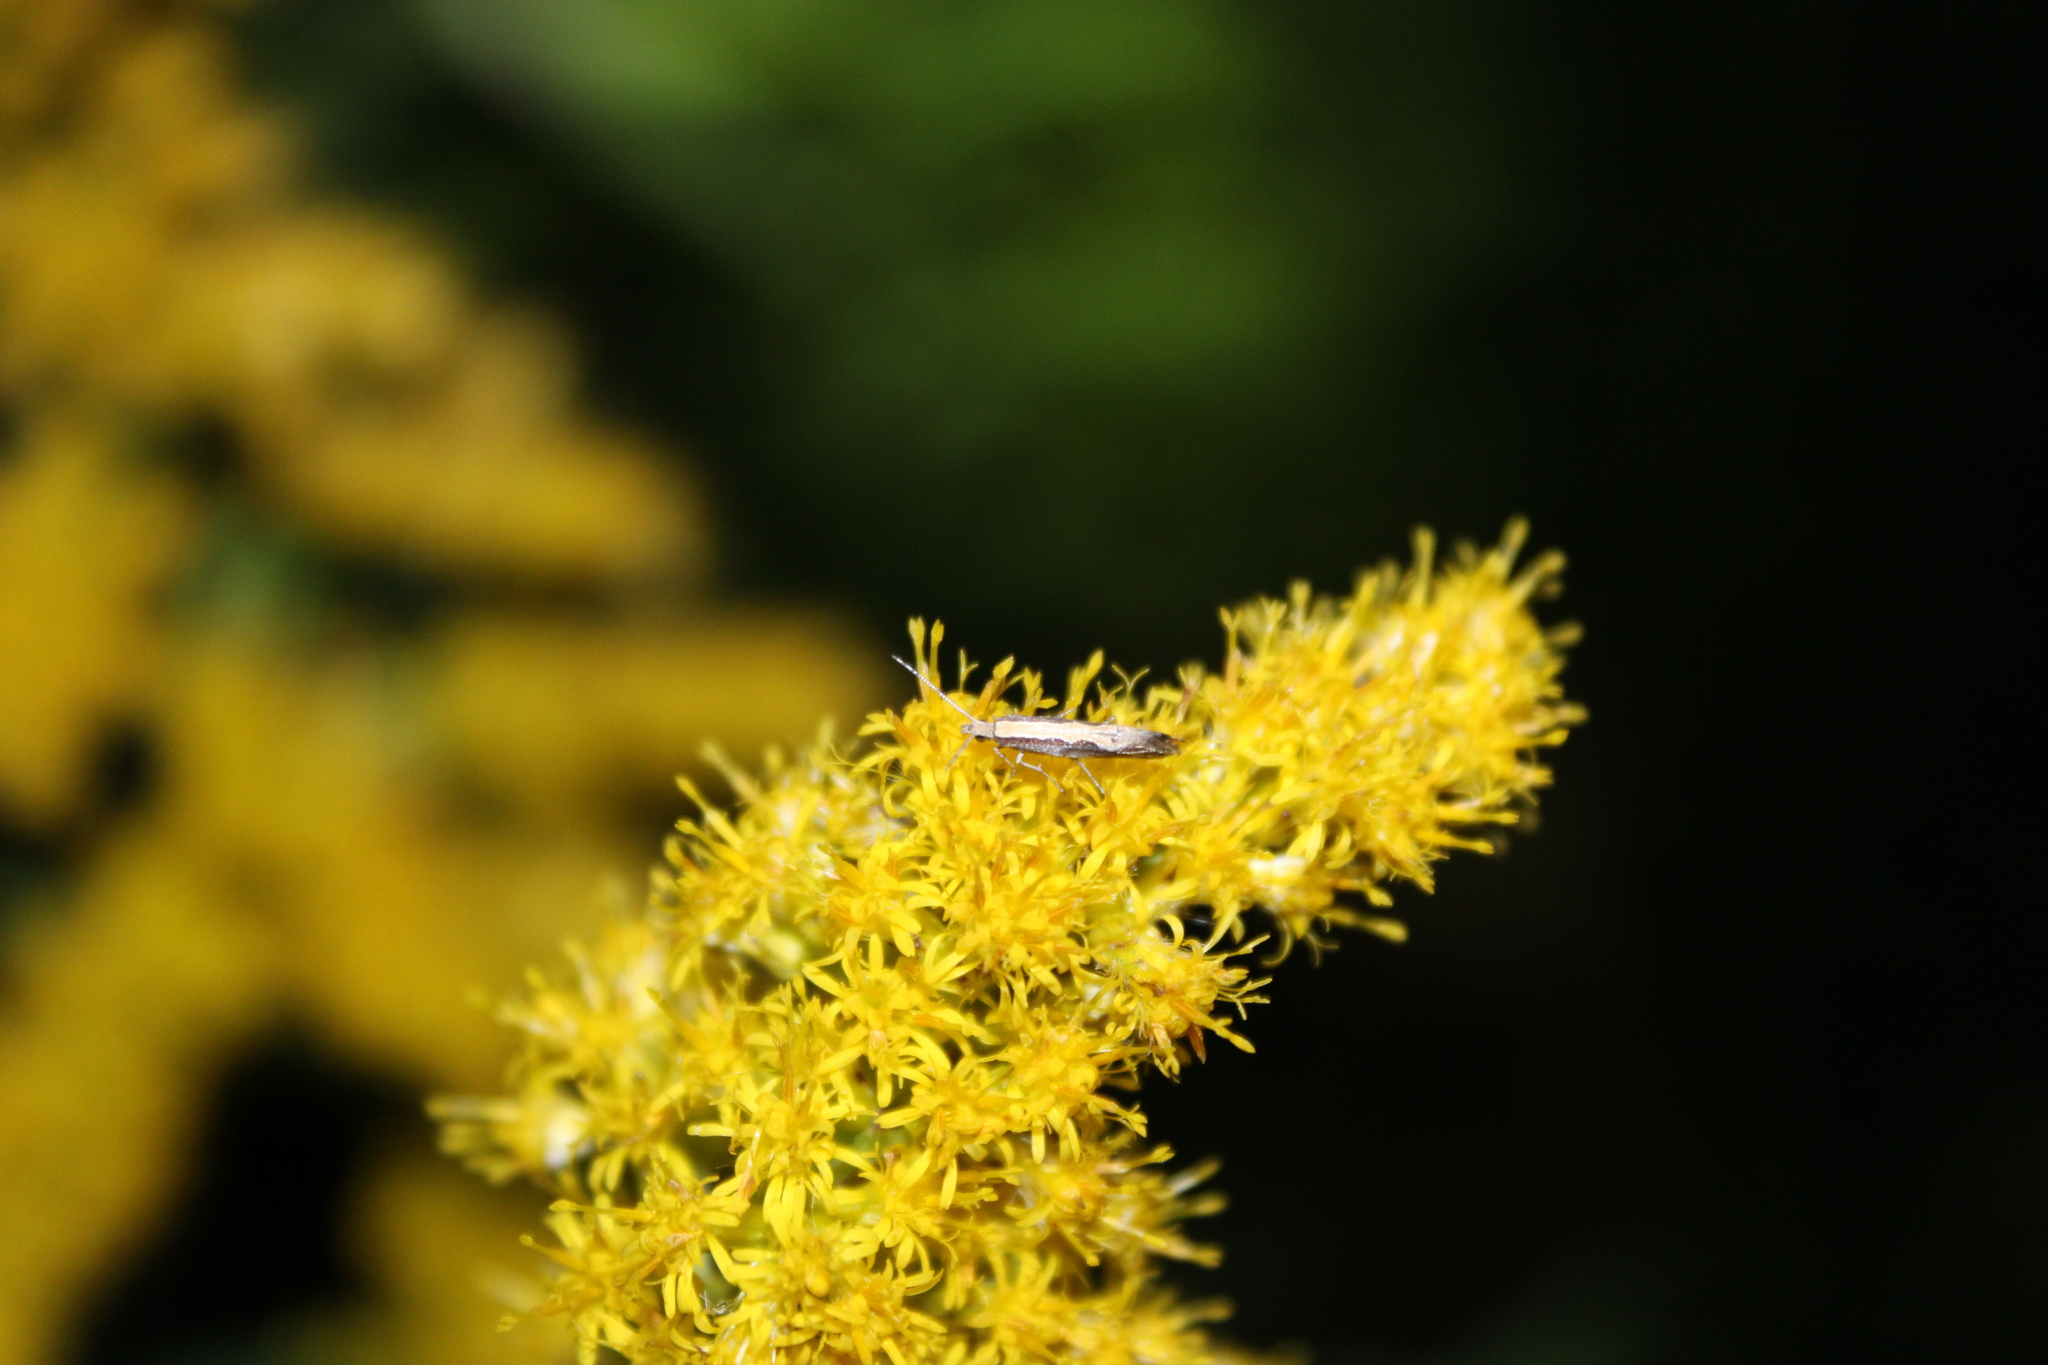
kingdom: Animalia
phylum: Arthropoda
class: Insecta
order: Lepidoptera
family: Plutellidae
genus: Plutella
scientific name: Plutella xylostella
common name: Diamond-back moth
